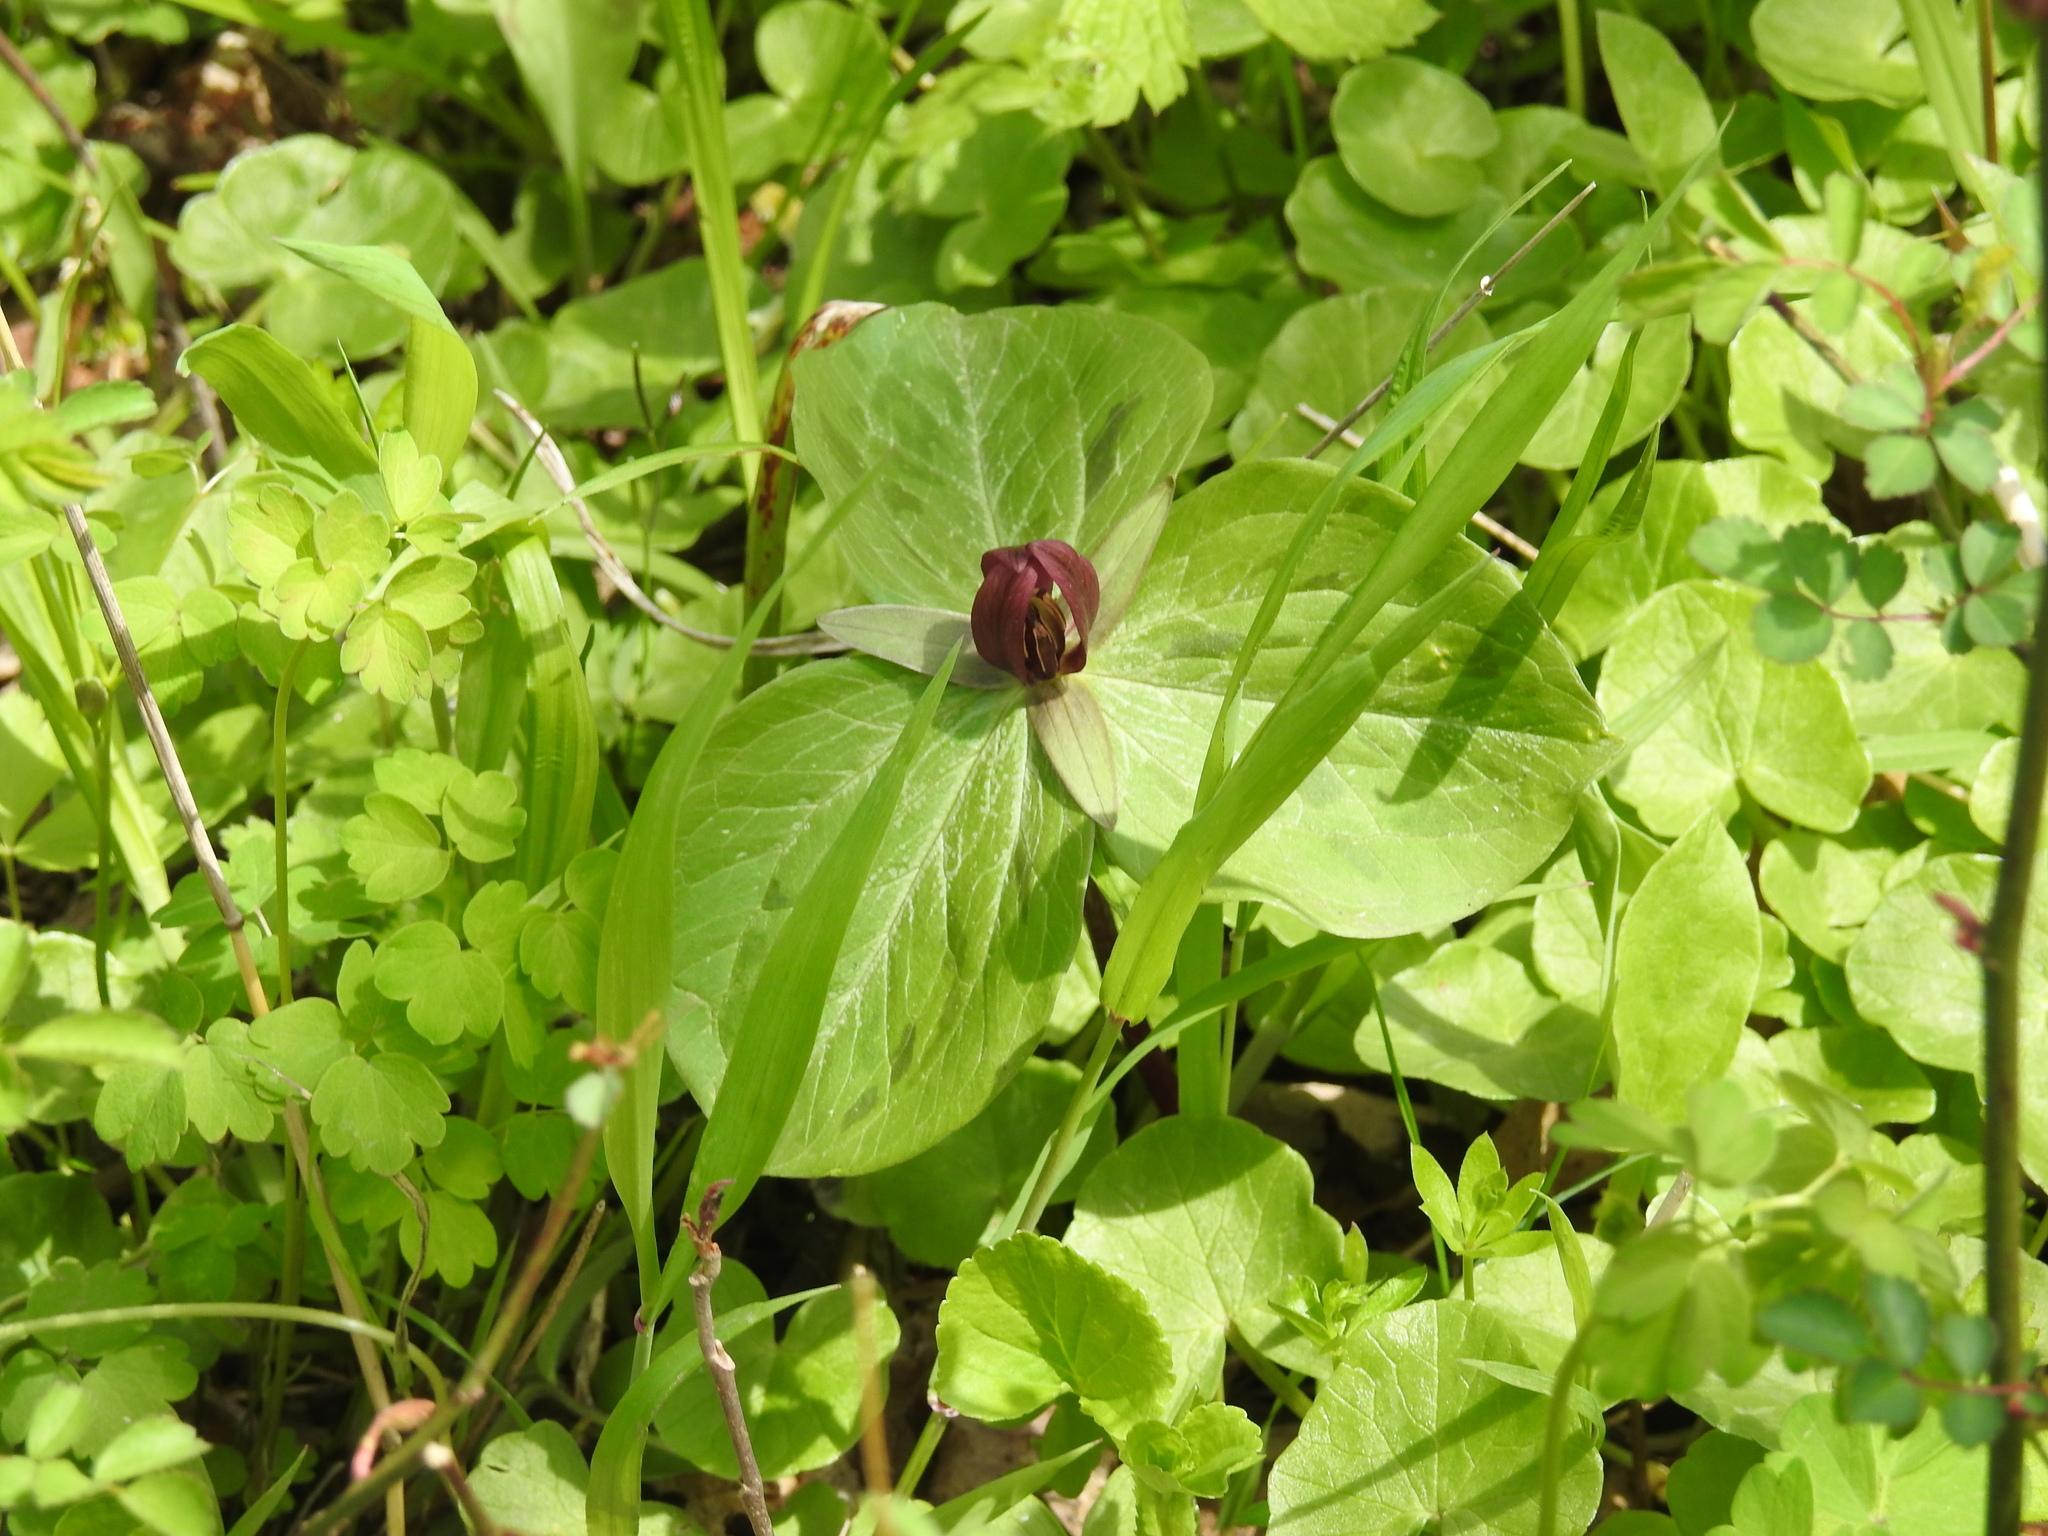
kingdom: Plantae
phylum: Tracheophyta
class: Liliopsida
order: Liliales
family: Melanthiaceae
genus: Trillium
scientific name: Trillium sessile
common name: Sessile trillium
